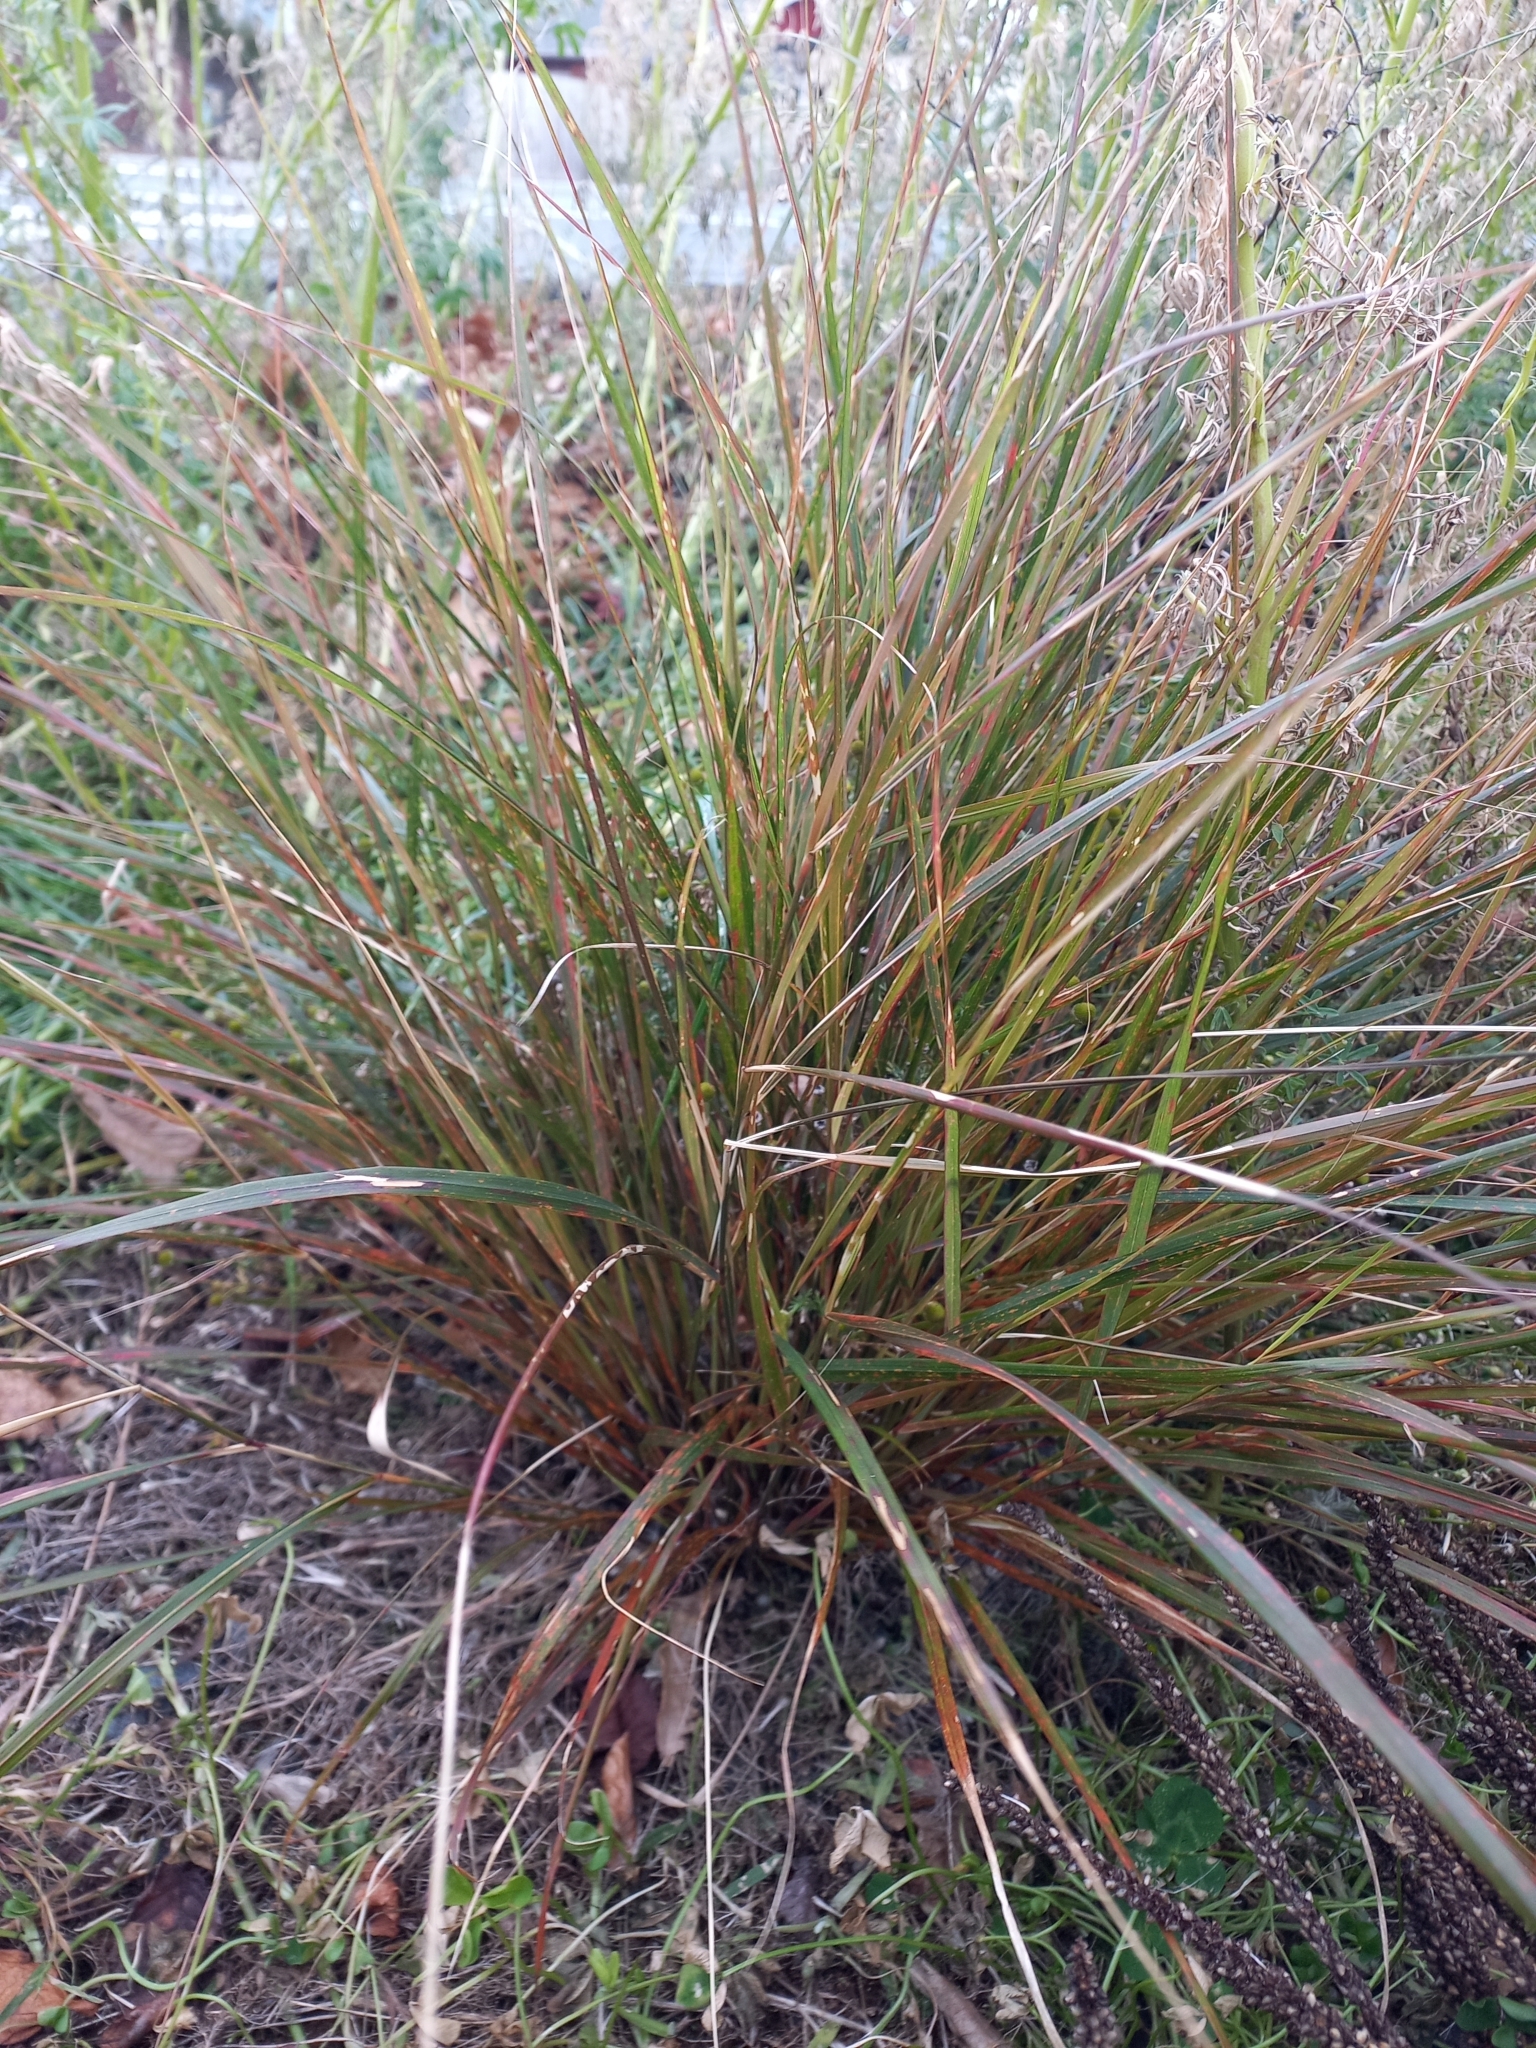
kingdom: Plantae
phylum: Tracheophyta
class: Liliopsida
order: Poales
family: Poaceae
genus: Anemanthele
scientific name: Anemanthele lessoniana
